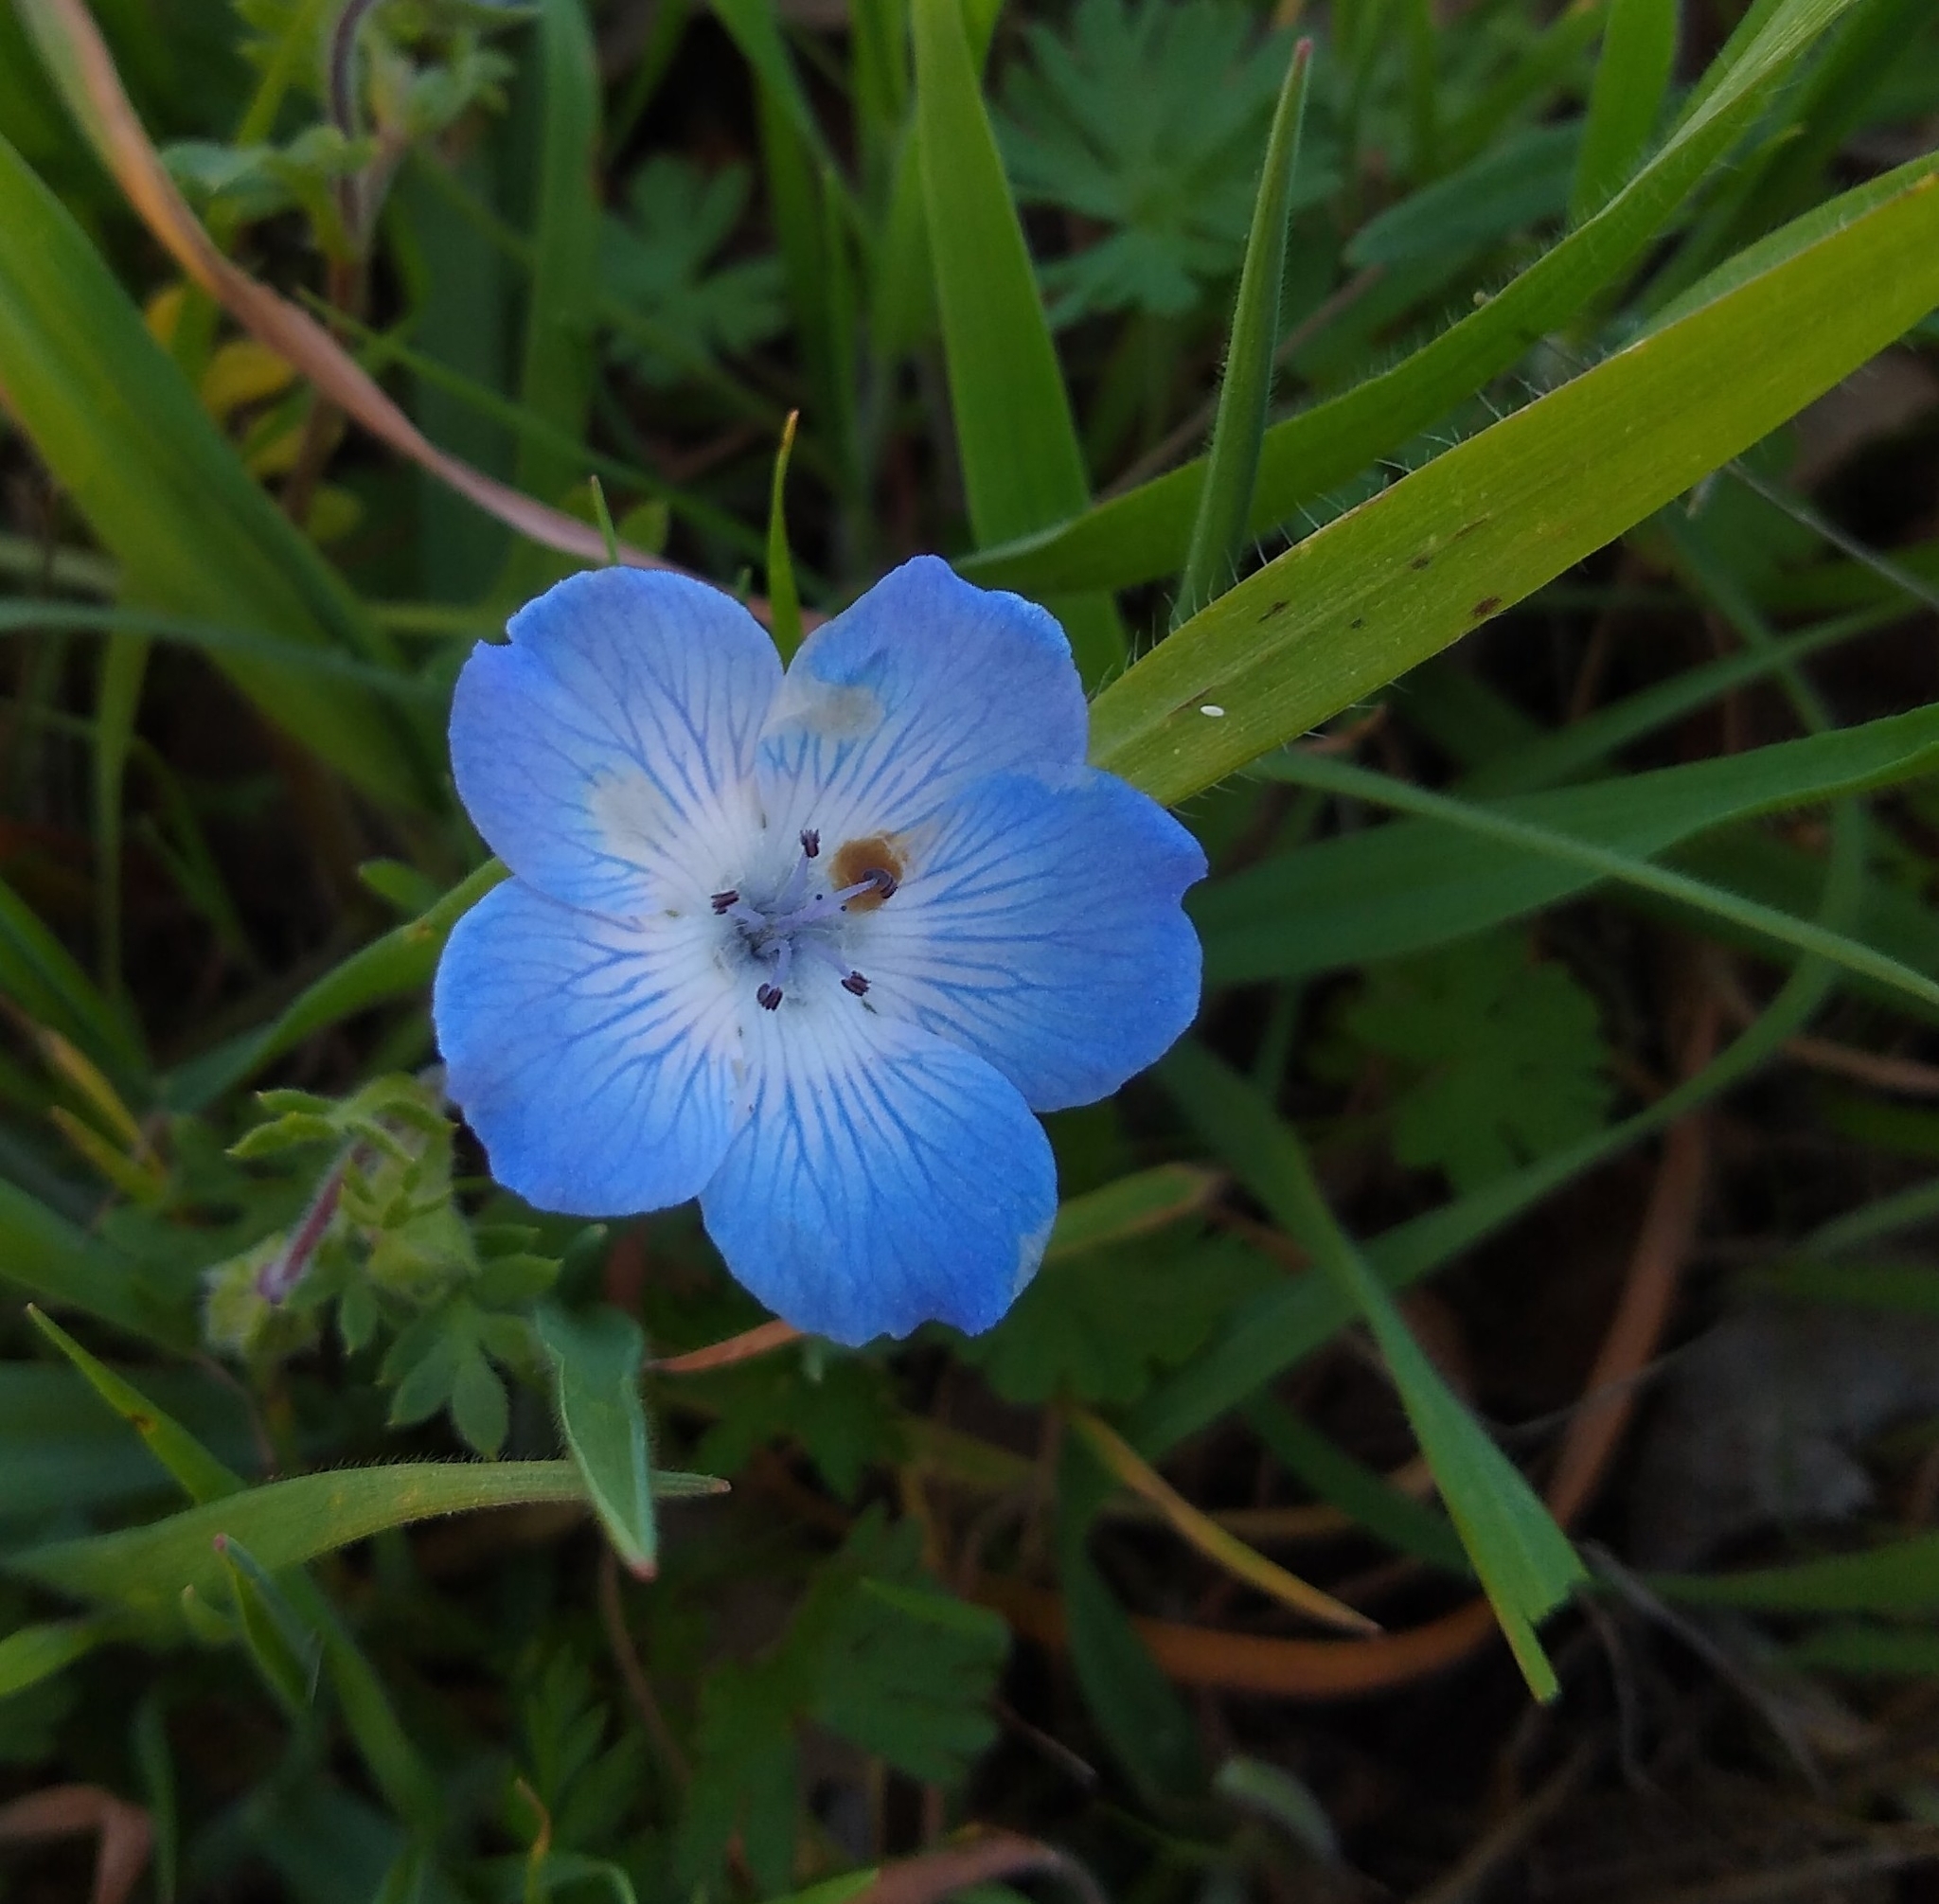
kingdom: Plantae
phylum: Tracheophyta
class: Magnoliopsida
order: Boraginales
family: Hydrophyllaceae
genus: Nemophila
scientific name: Nemophila menziesii
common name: Baby's-blue-eyes
